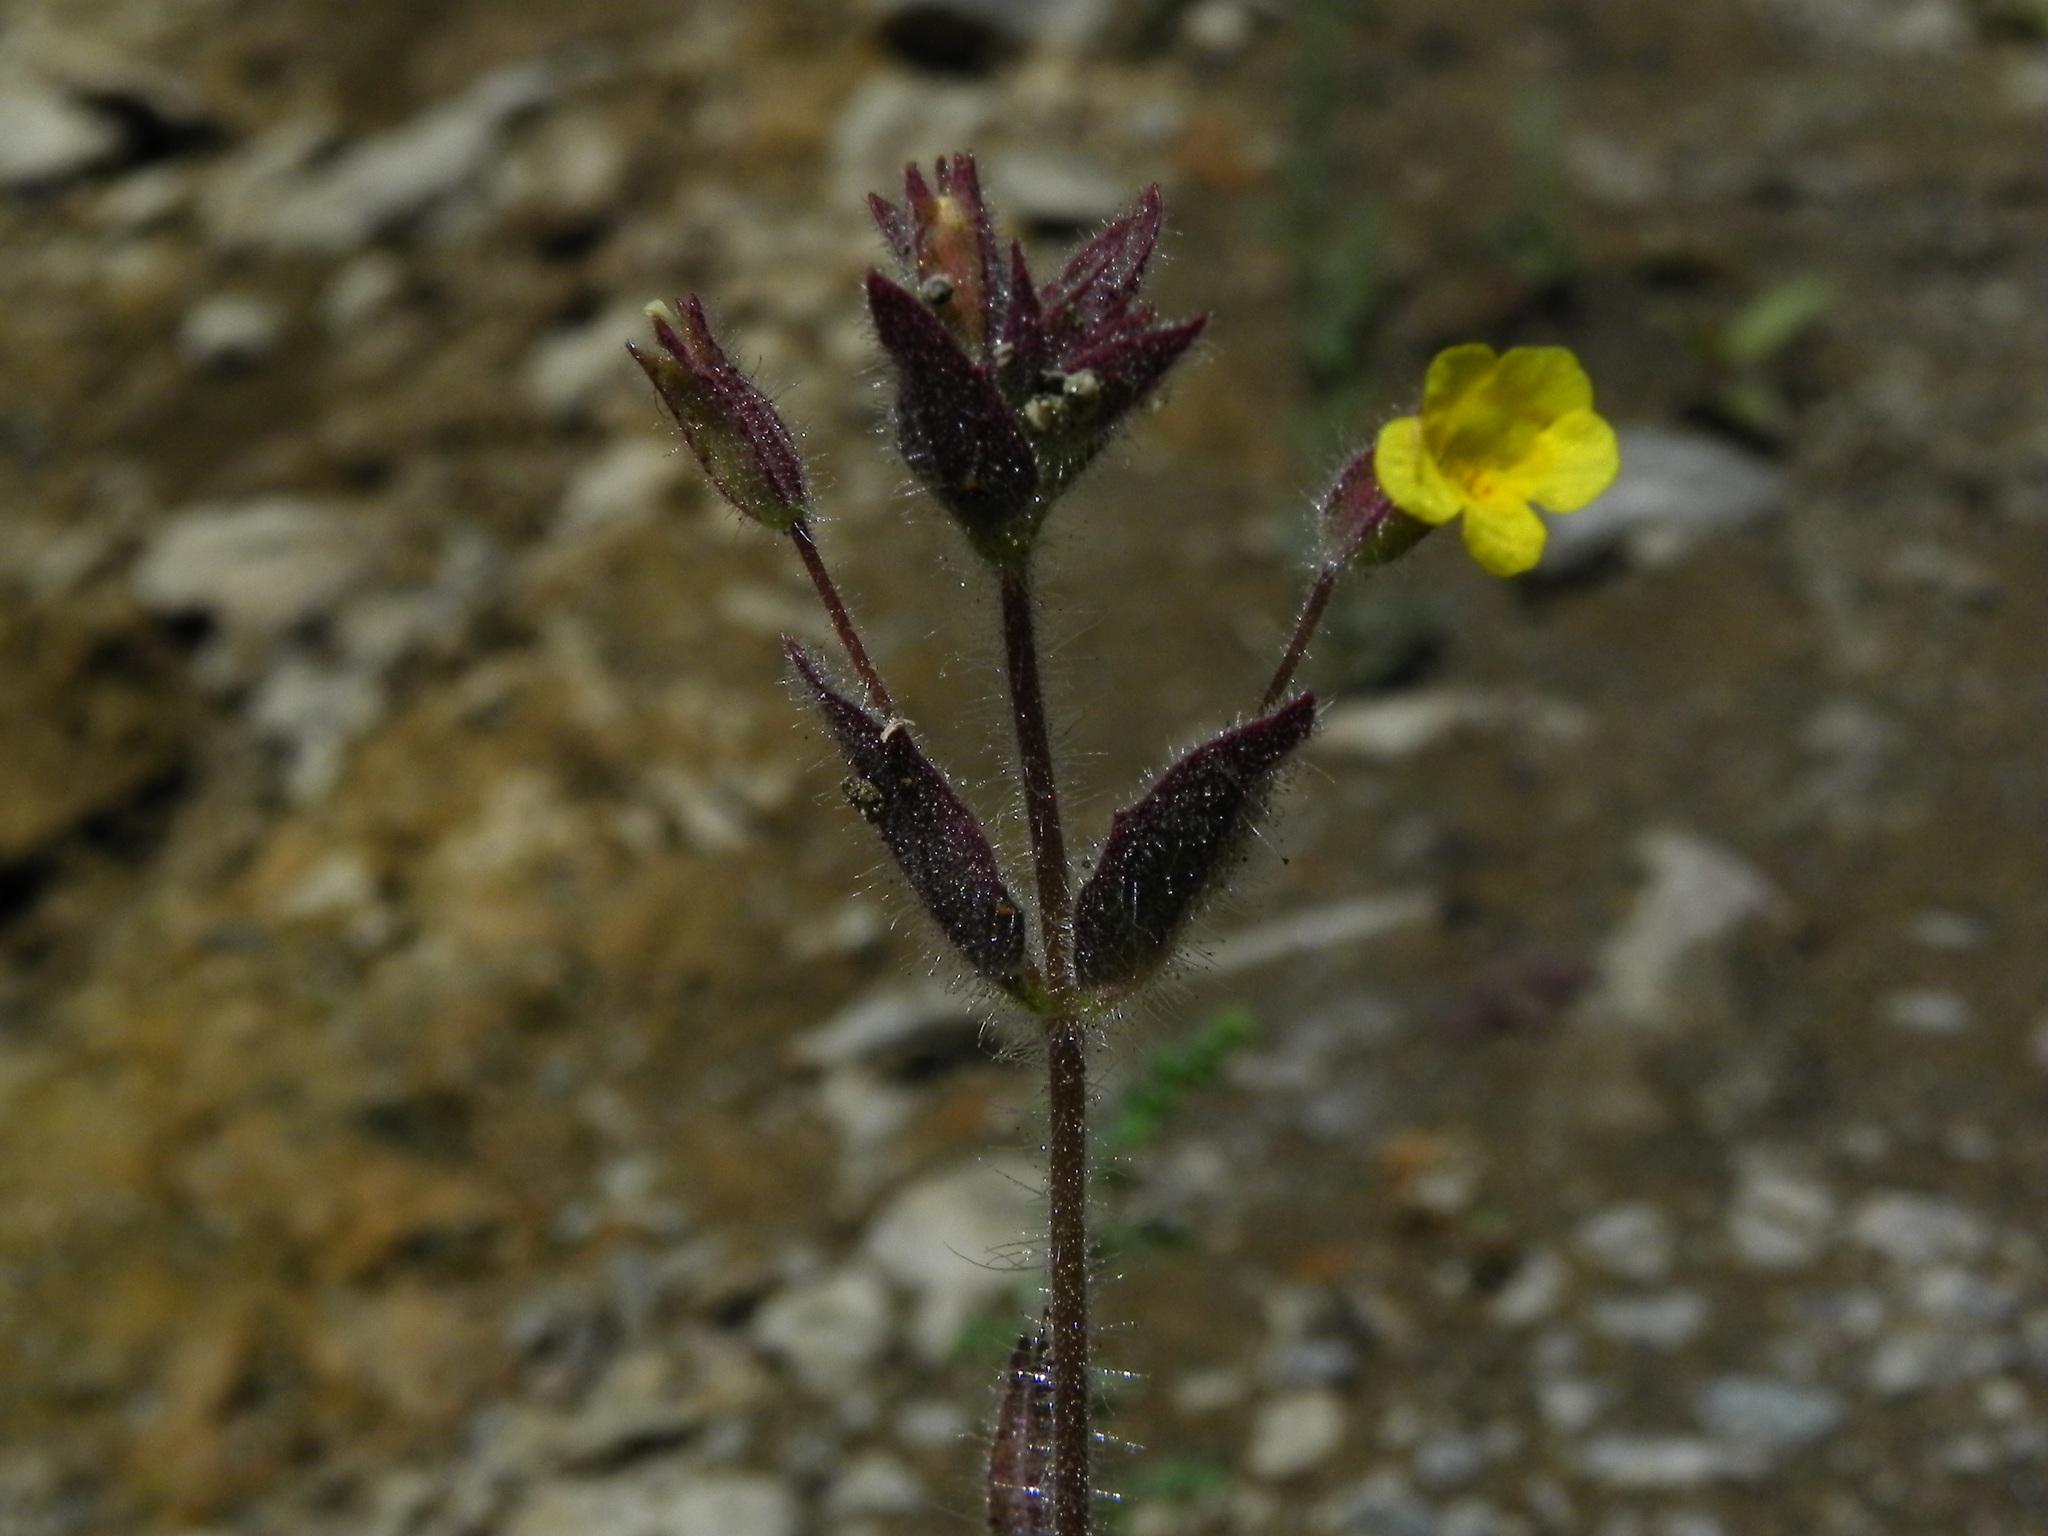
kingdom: Plantae
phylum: Tracheophyta
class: Magnoliopsida
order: Lamiales
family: Phrymaceae
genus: Erythranthe
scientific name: Erythranthe floribunda
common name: Floriferous monkeyflower
